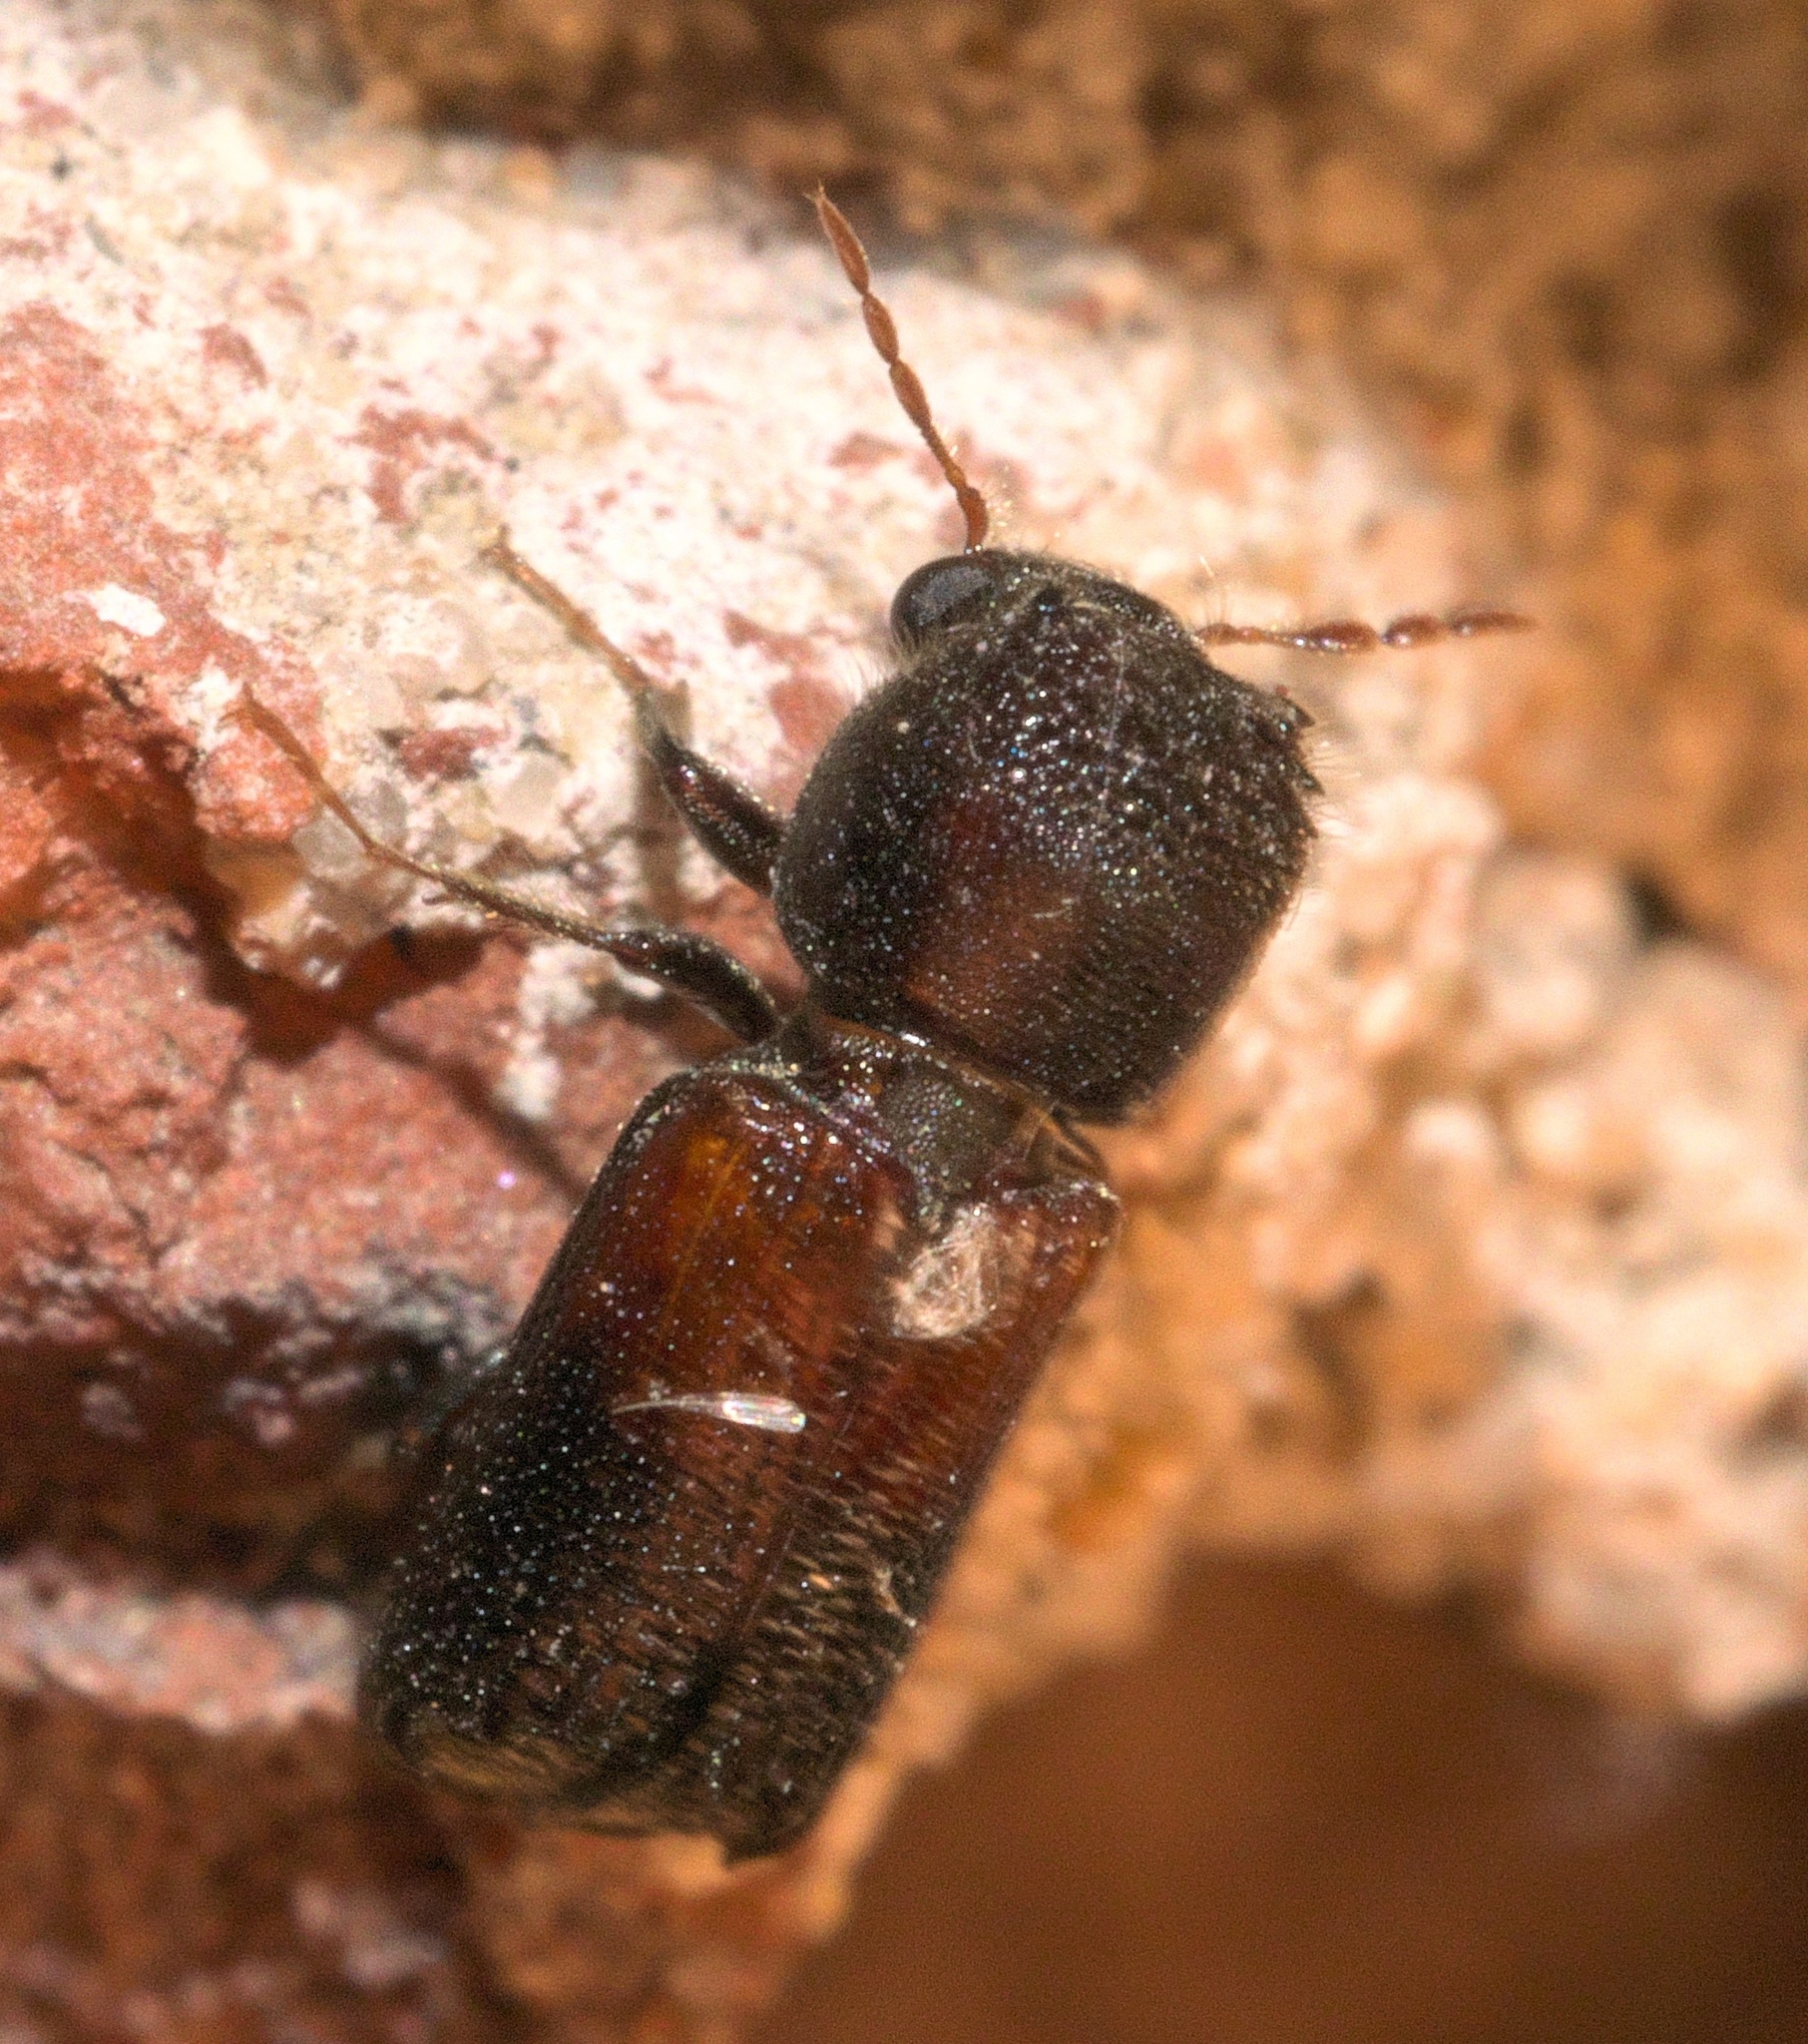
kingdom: Animalia
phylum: Arthropoda
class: Insecta
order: Coleoptera
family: Bostrichidae
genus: Xylobiops
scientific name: Xylobiops basilaris
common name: Red-shouldered bostrichid
